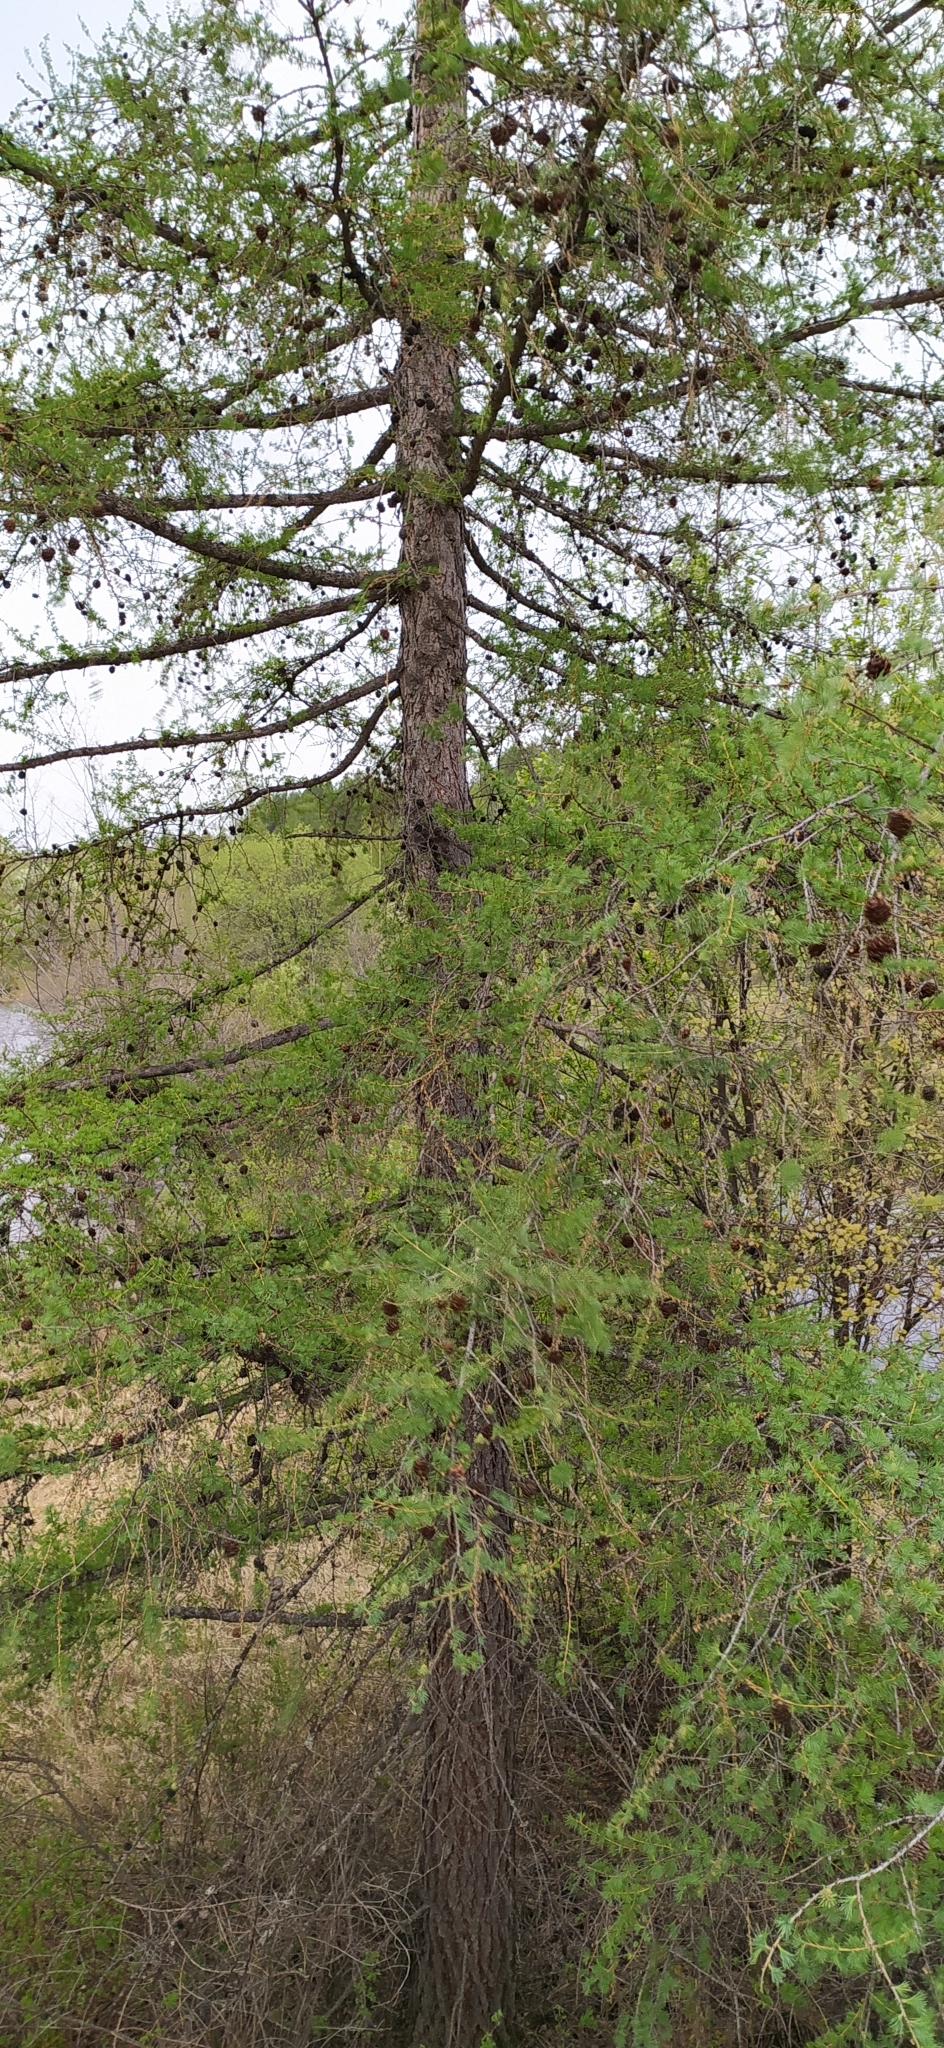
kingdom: Plantae
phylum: Tracheophyta
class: Pinopsida
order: Pinales
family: Pinaceae
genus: Larix
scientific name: Larix sibirica
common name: Siberian larch
